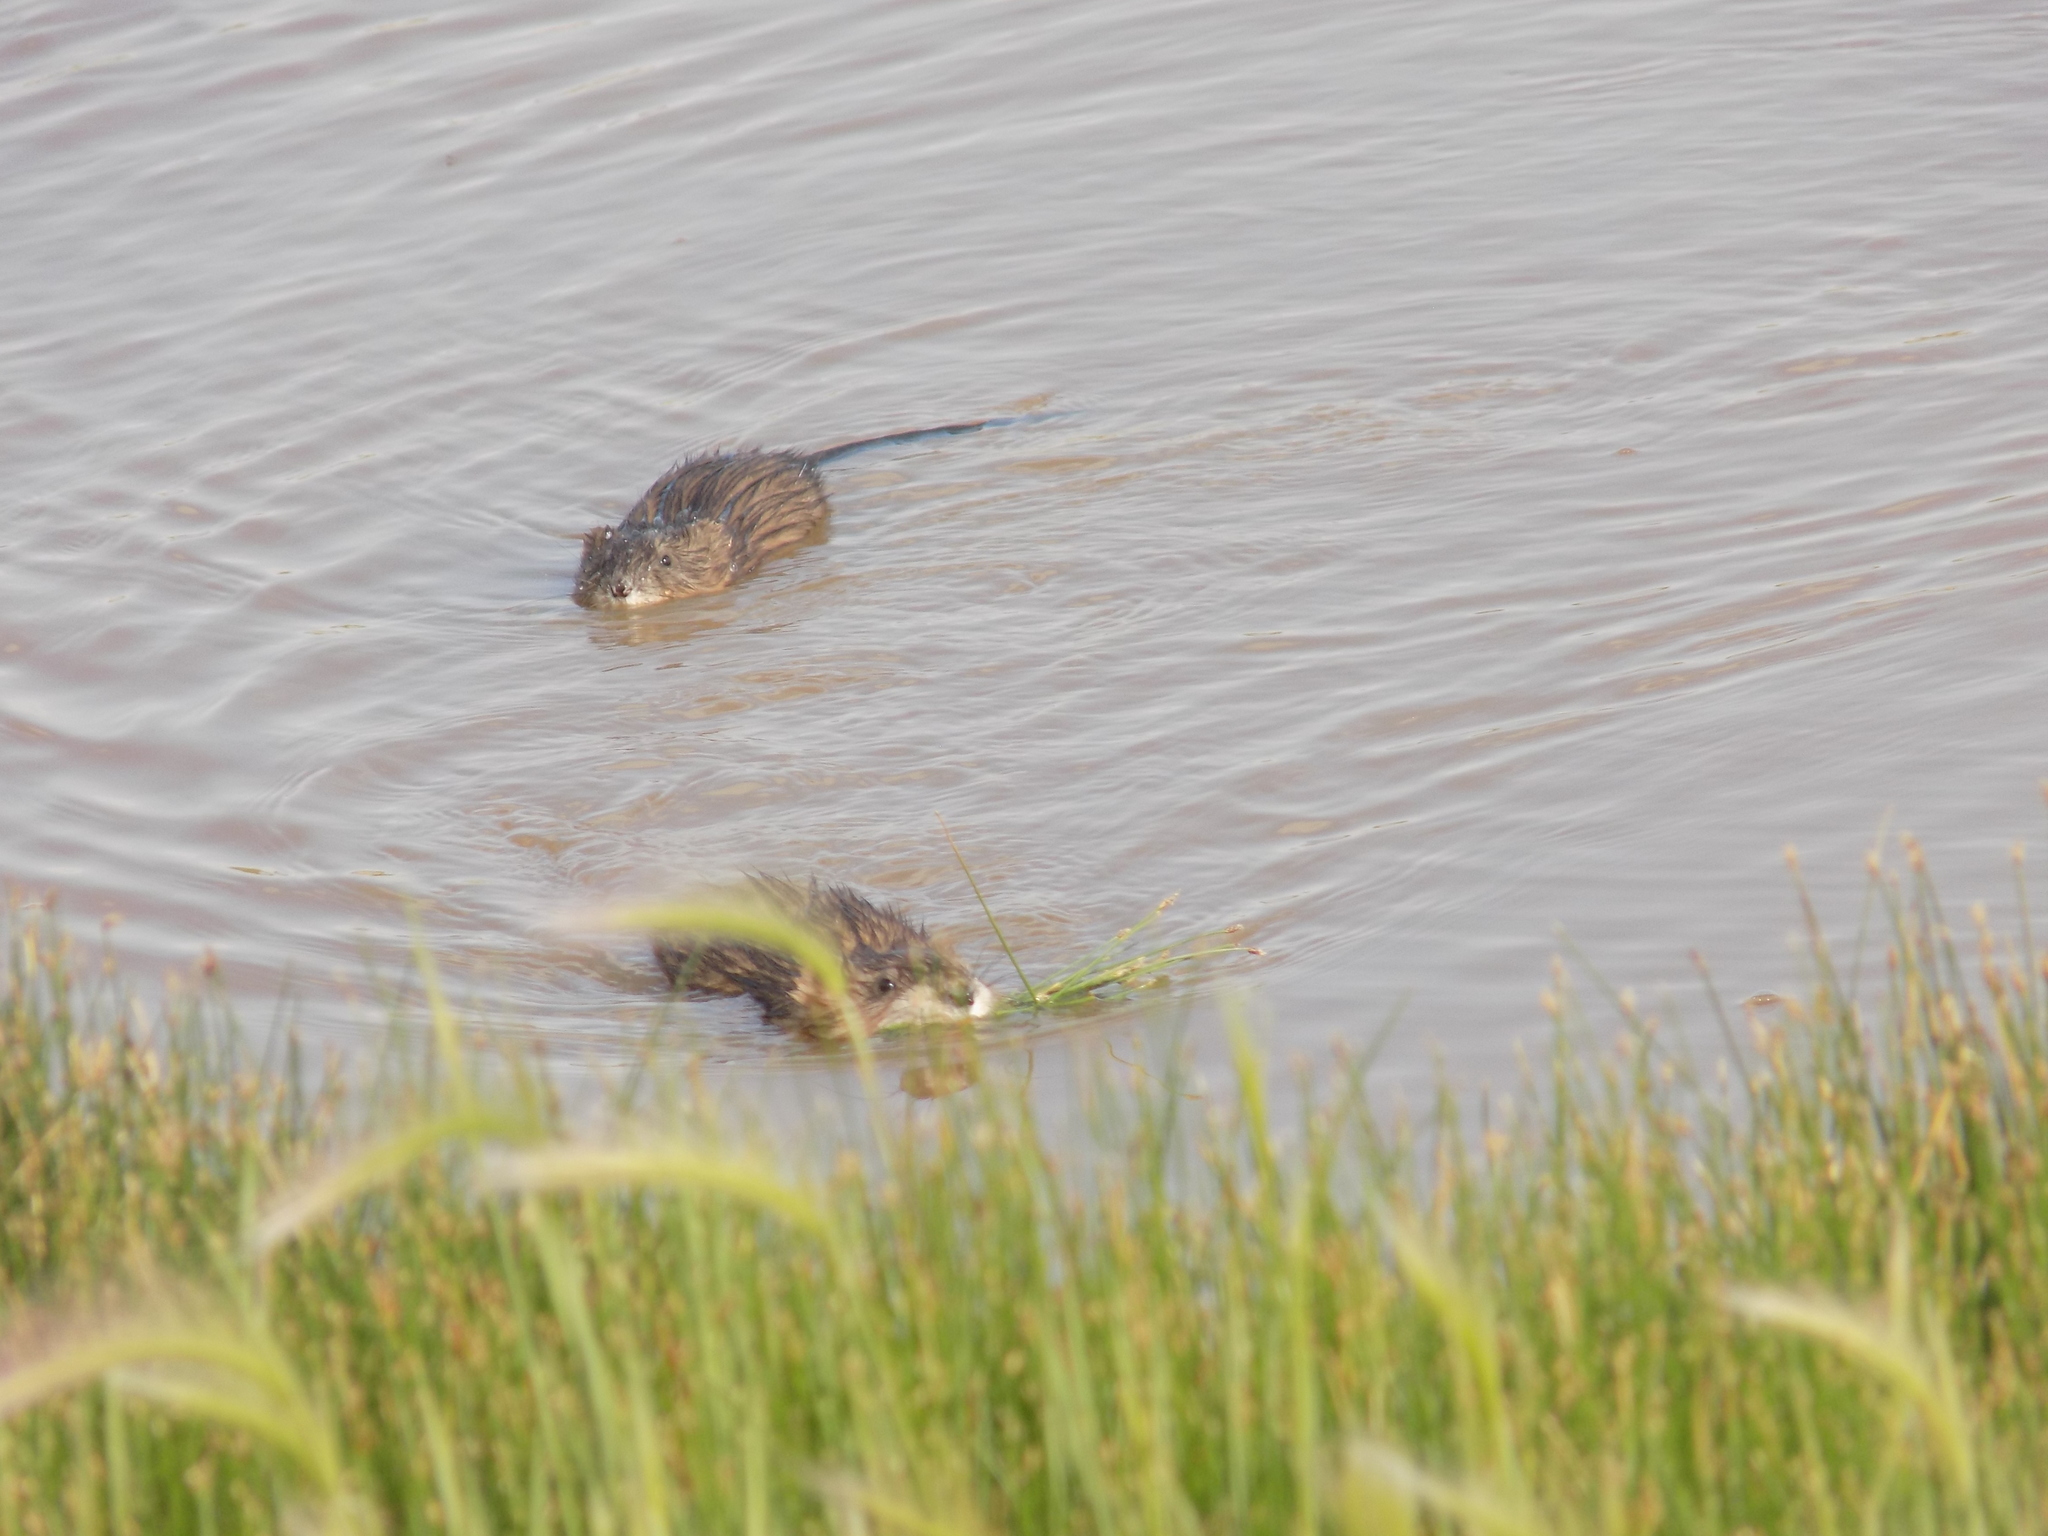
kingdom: Animalia
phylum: Chordata
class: Mammalia
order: Rodentia
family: Cricetidae
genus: Ondatra
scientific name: Ondatra zibethicus
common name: Muskrat
